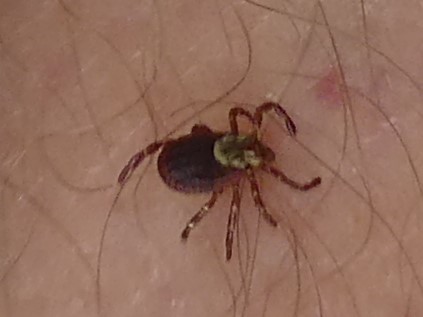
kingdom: Animalia
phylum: Arthropoda
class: Arachnida
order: Ixodida
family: Ixodidae
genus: Dermacentor
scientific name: Dermacentor variabilis
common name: American dog tick
